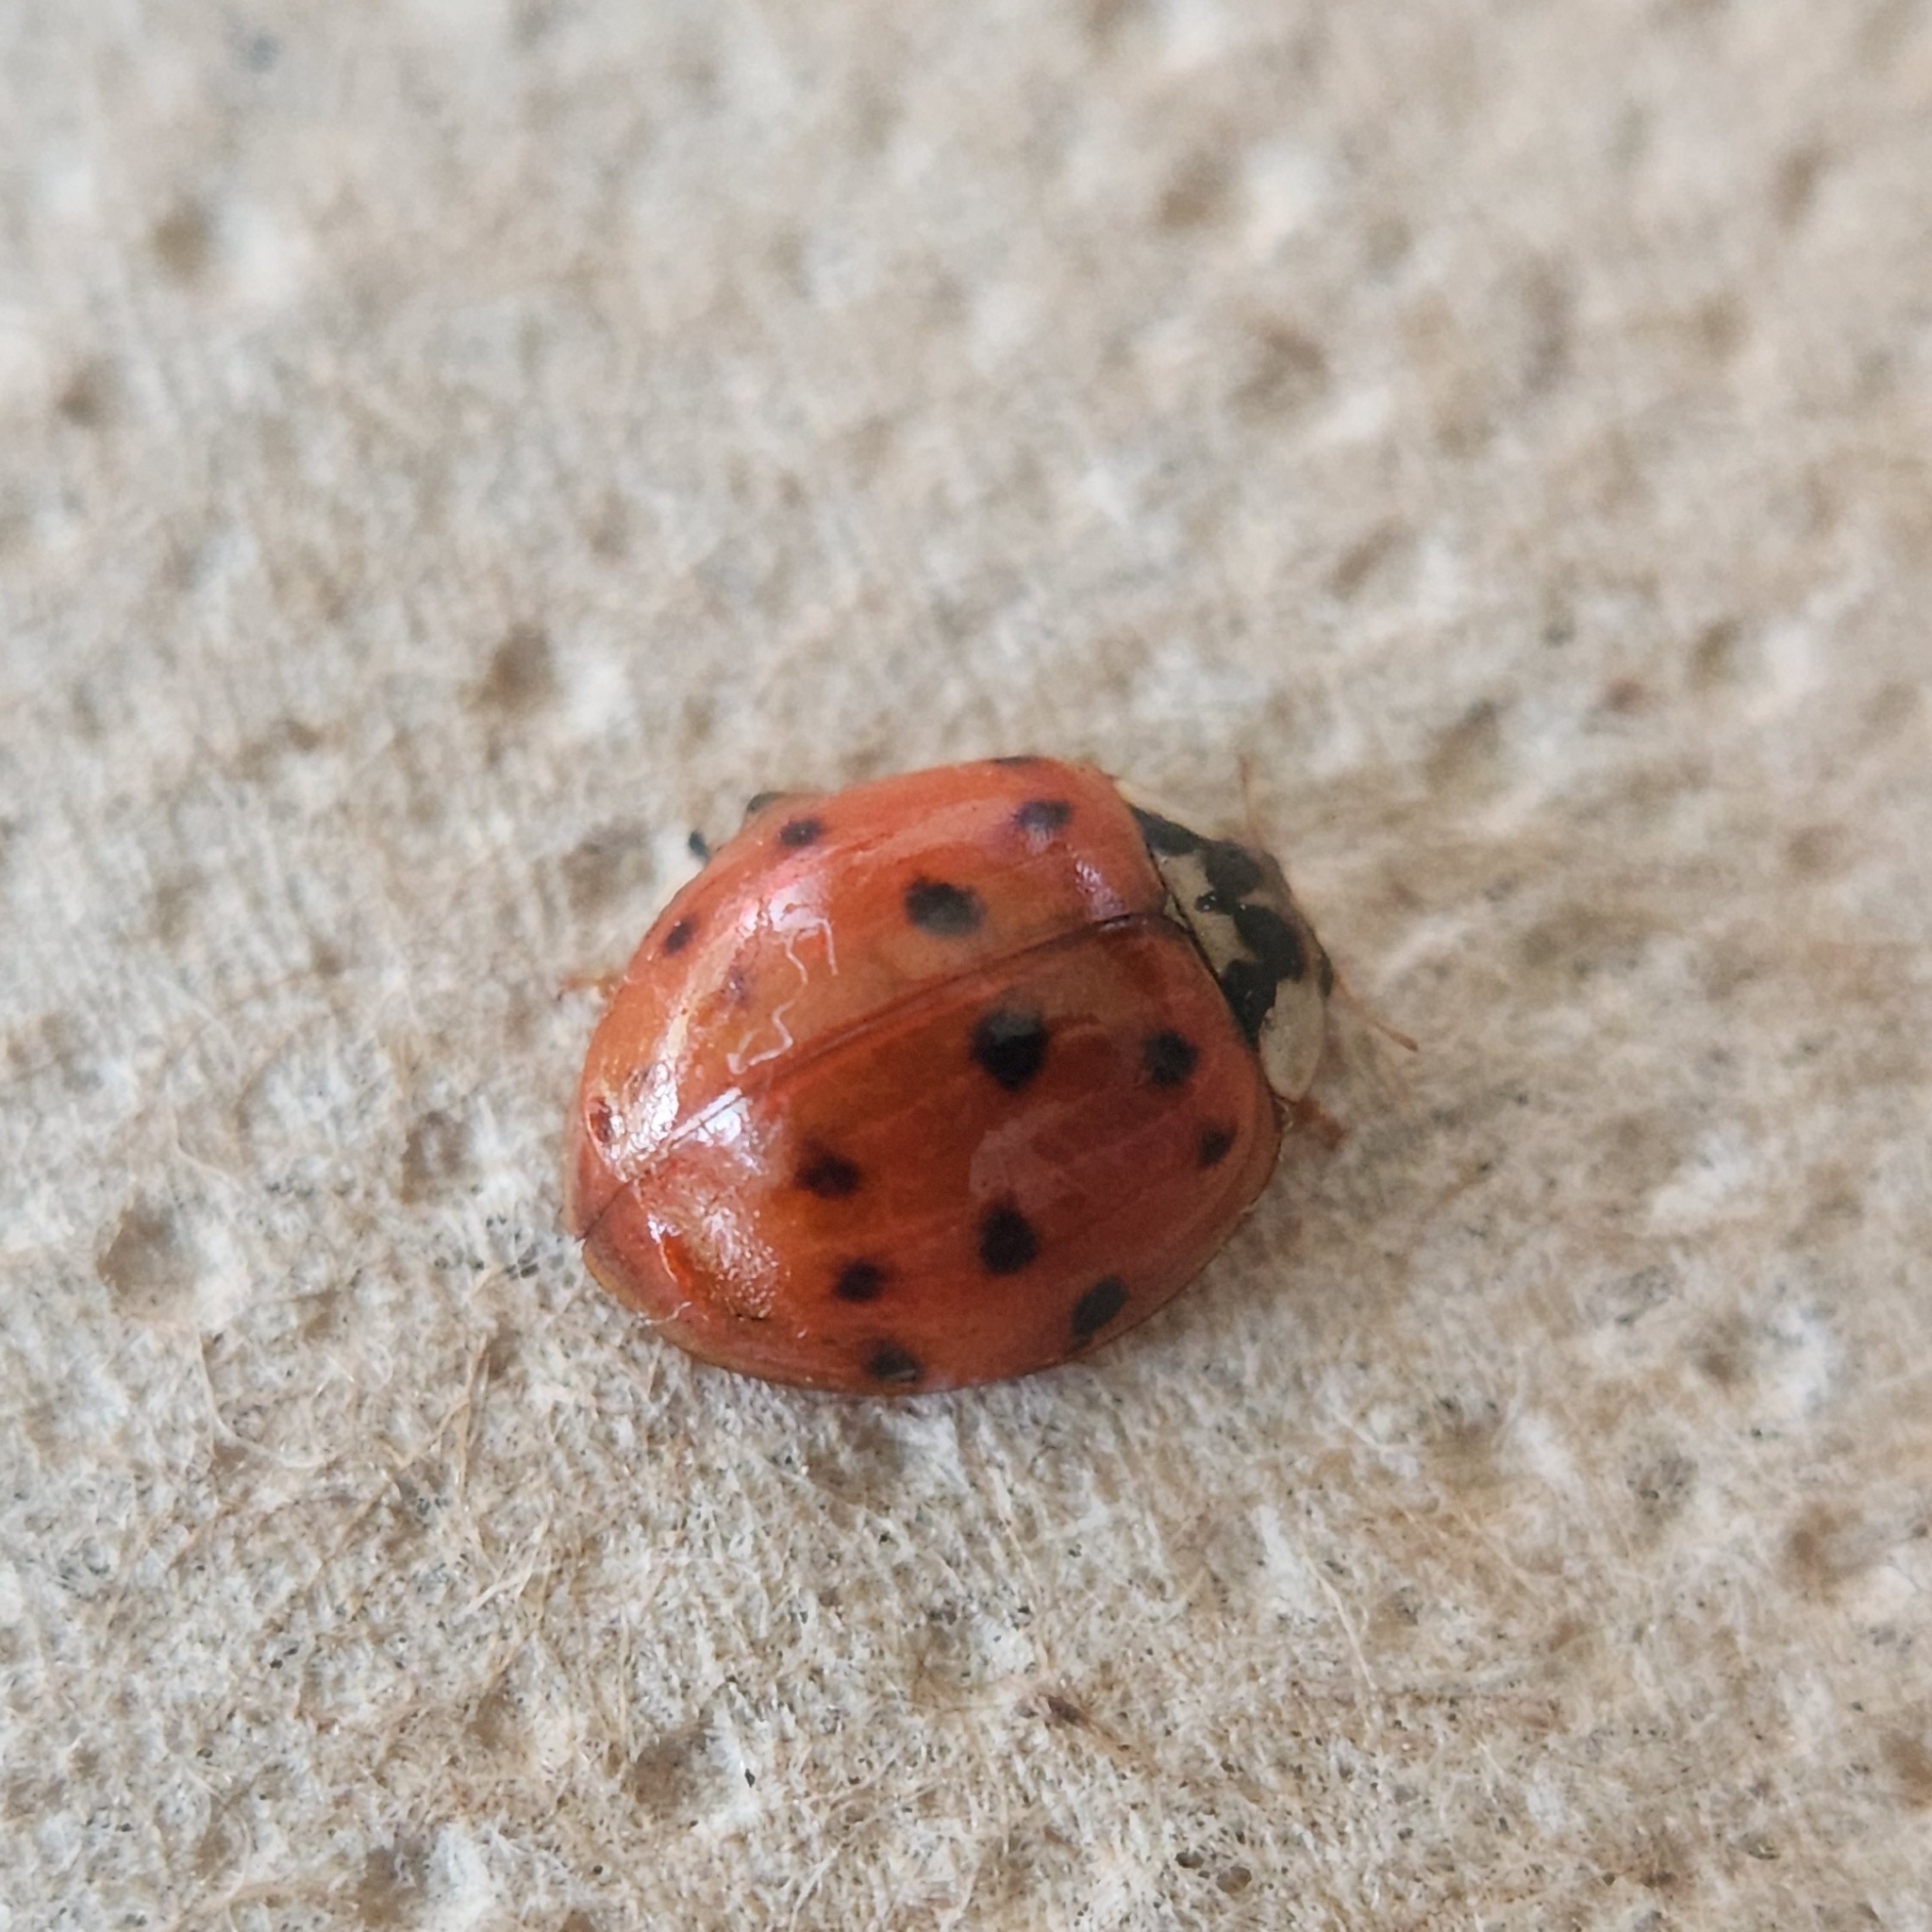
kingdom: Animalia
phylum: Arthropoda
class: Insecta
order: Coleoptera
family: Coccinellidae
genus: Harmonia
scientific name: Harmonia axyridis
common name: Harlequin ladybird
